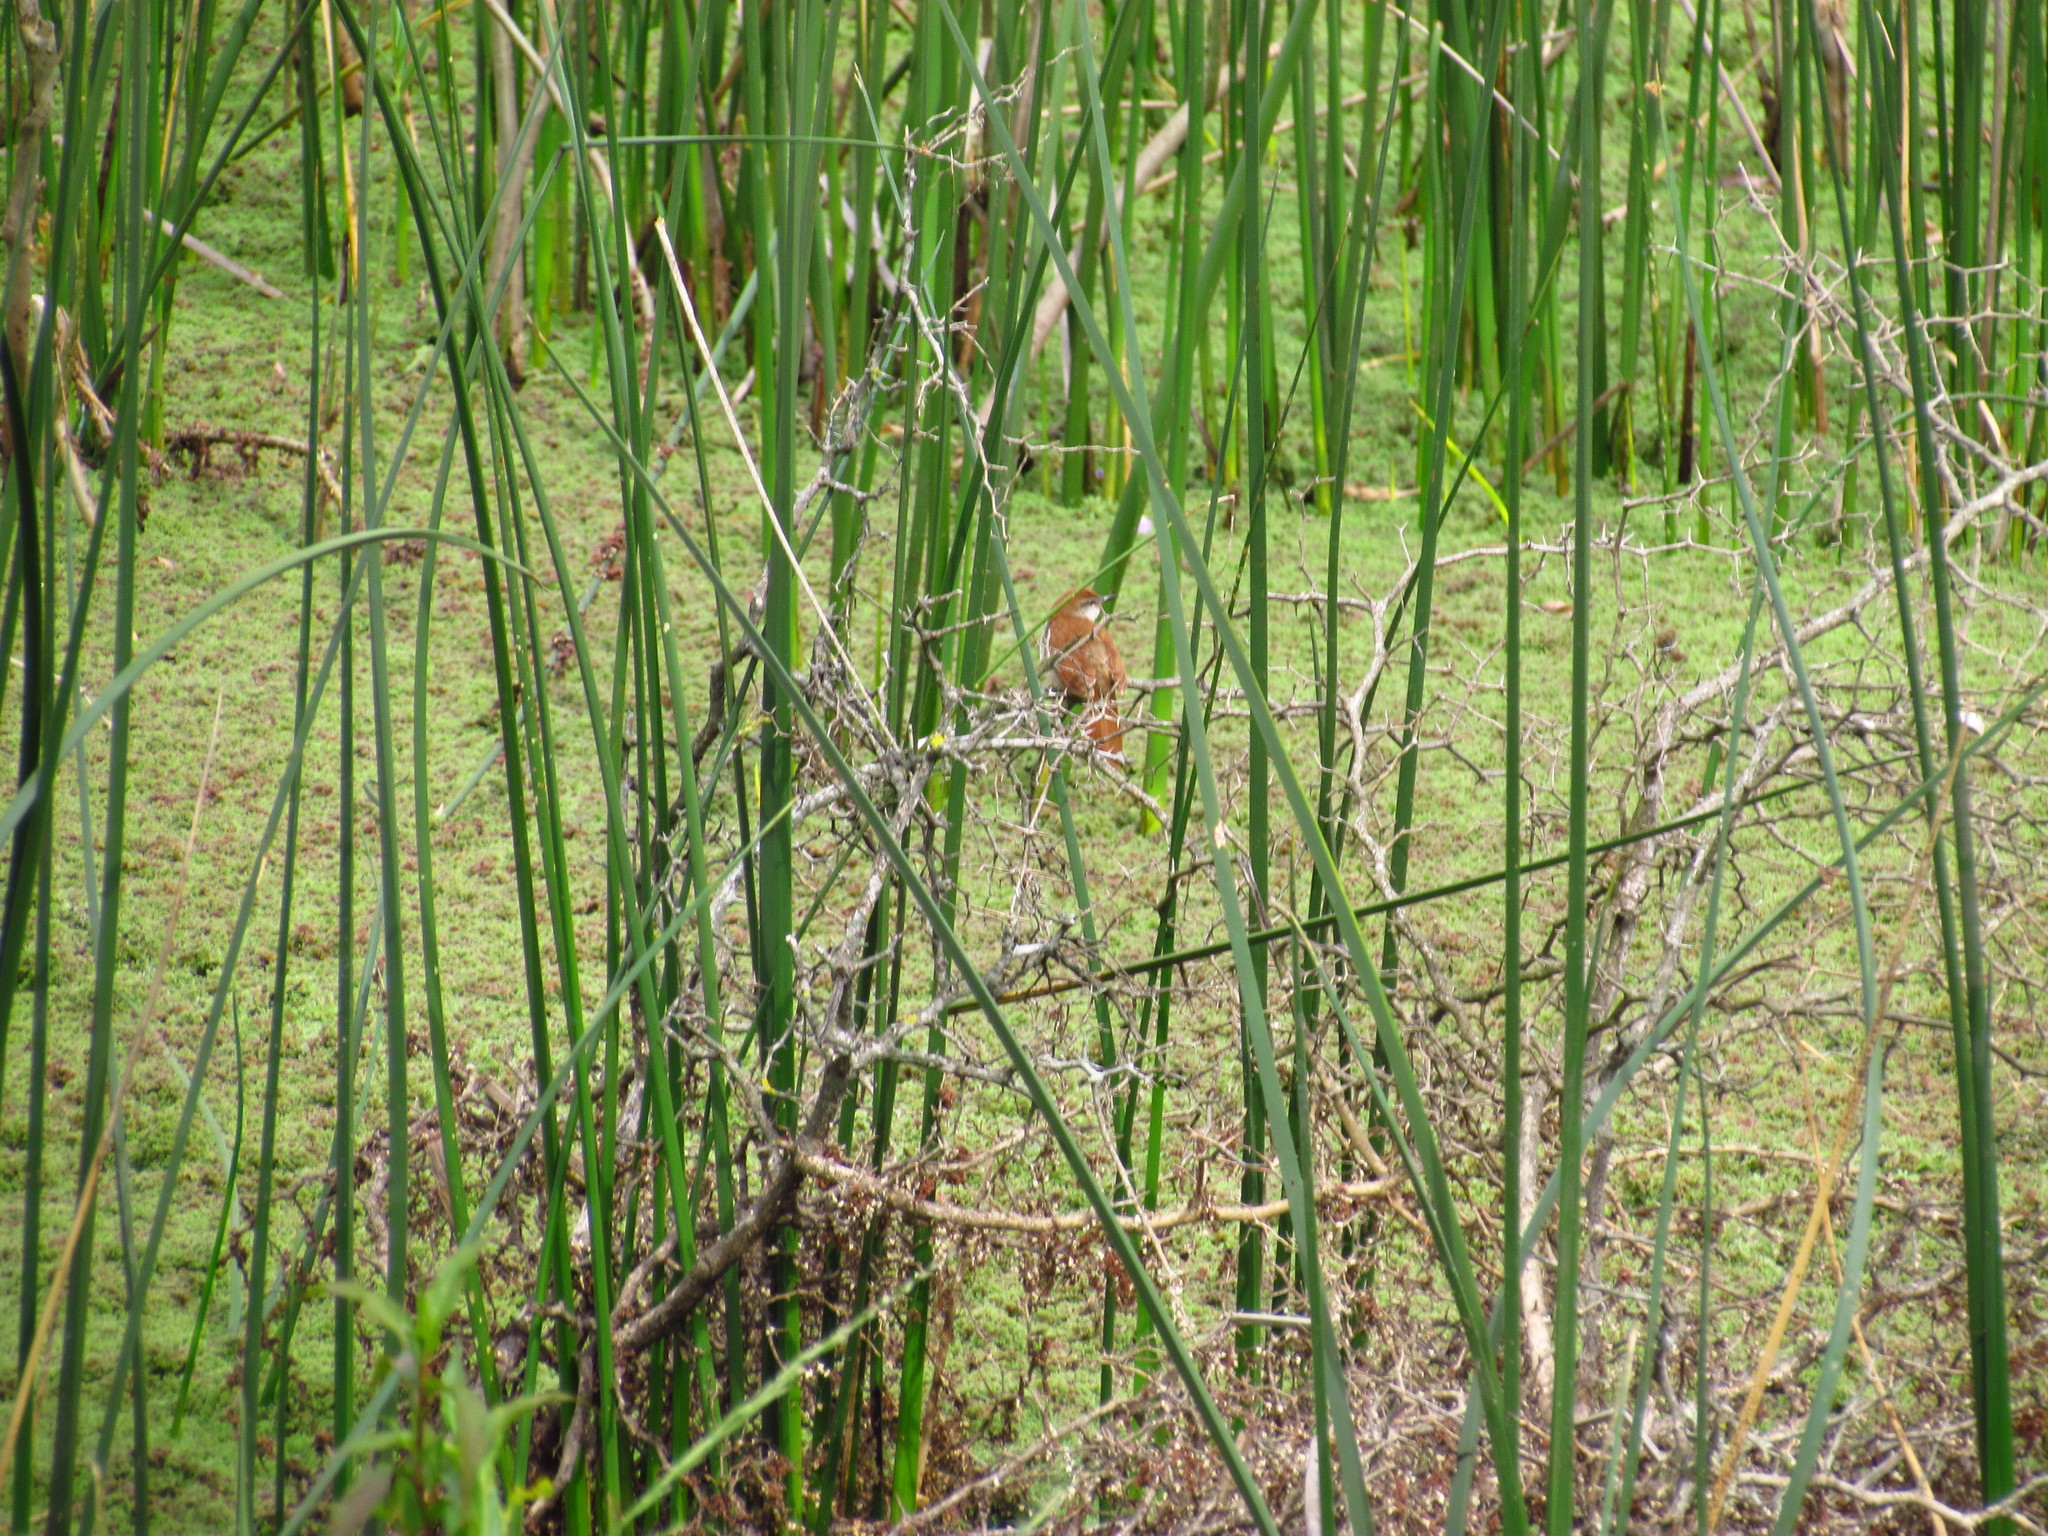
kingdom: Animalia
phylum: Chordata
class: Aves
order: Passeriformes
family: Furnariidae
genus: Certhiaxis
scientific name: Certhiaxis cinnamomeus
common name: Yellow-chinned spinetail
